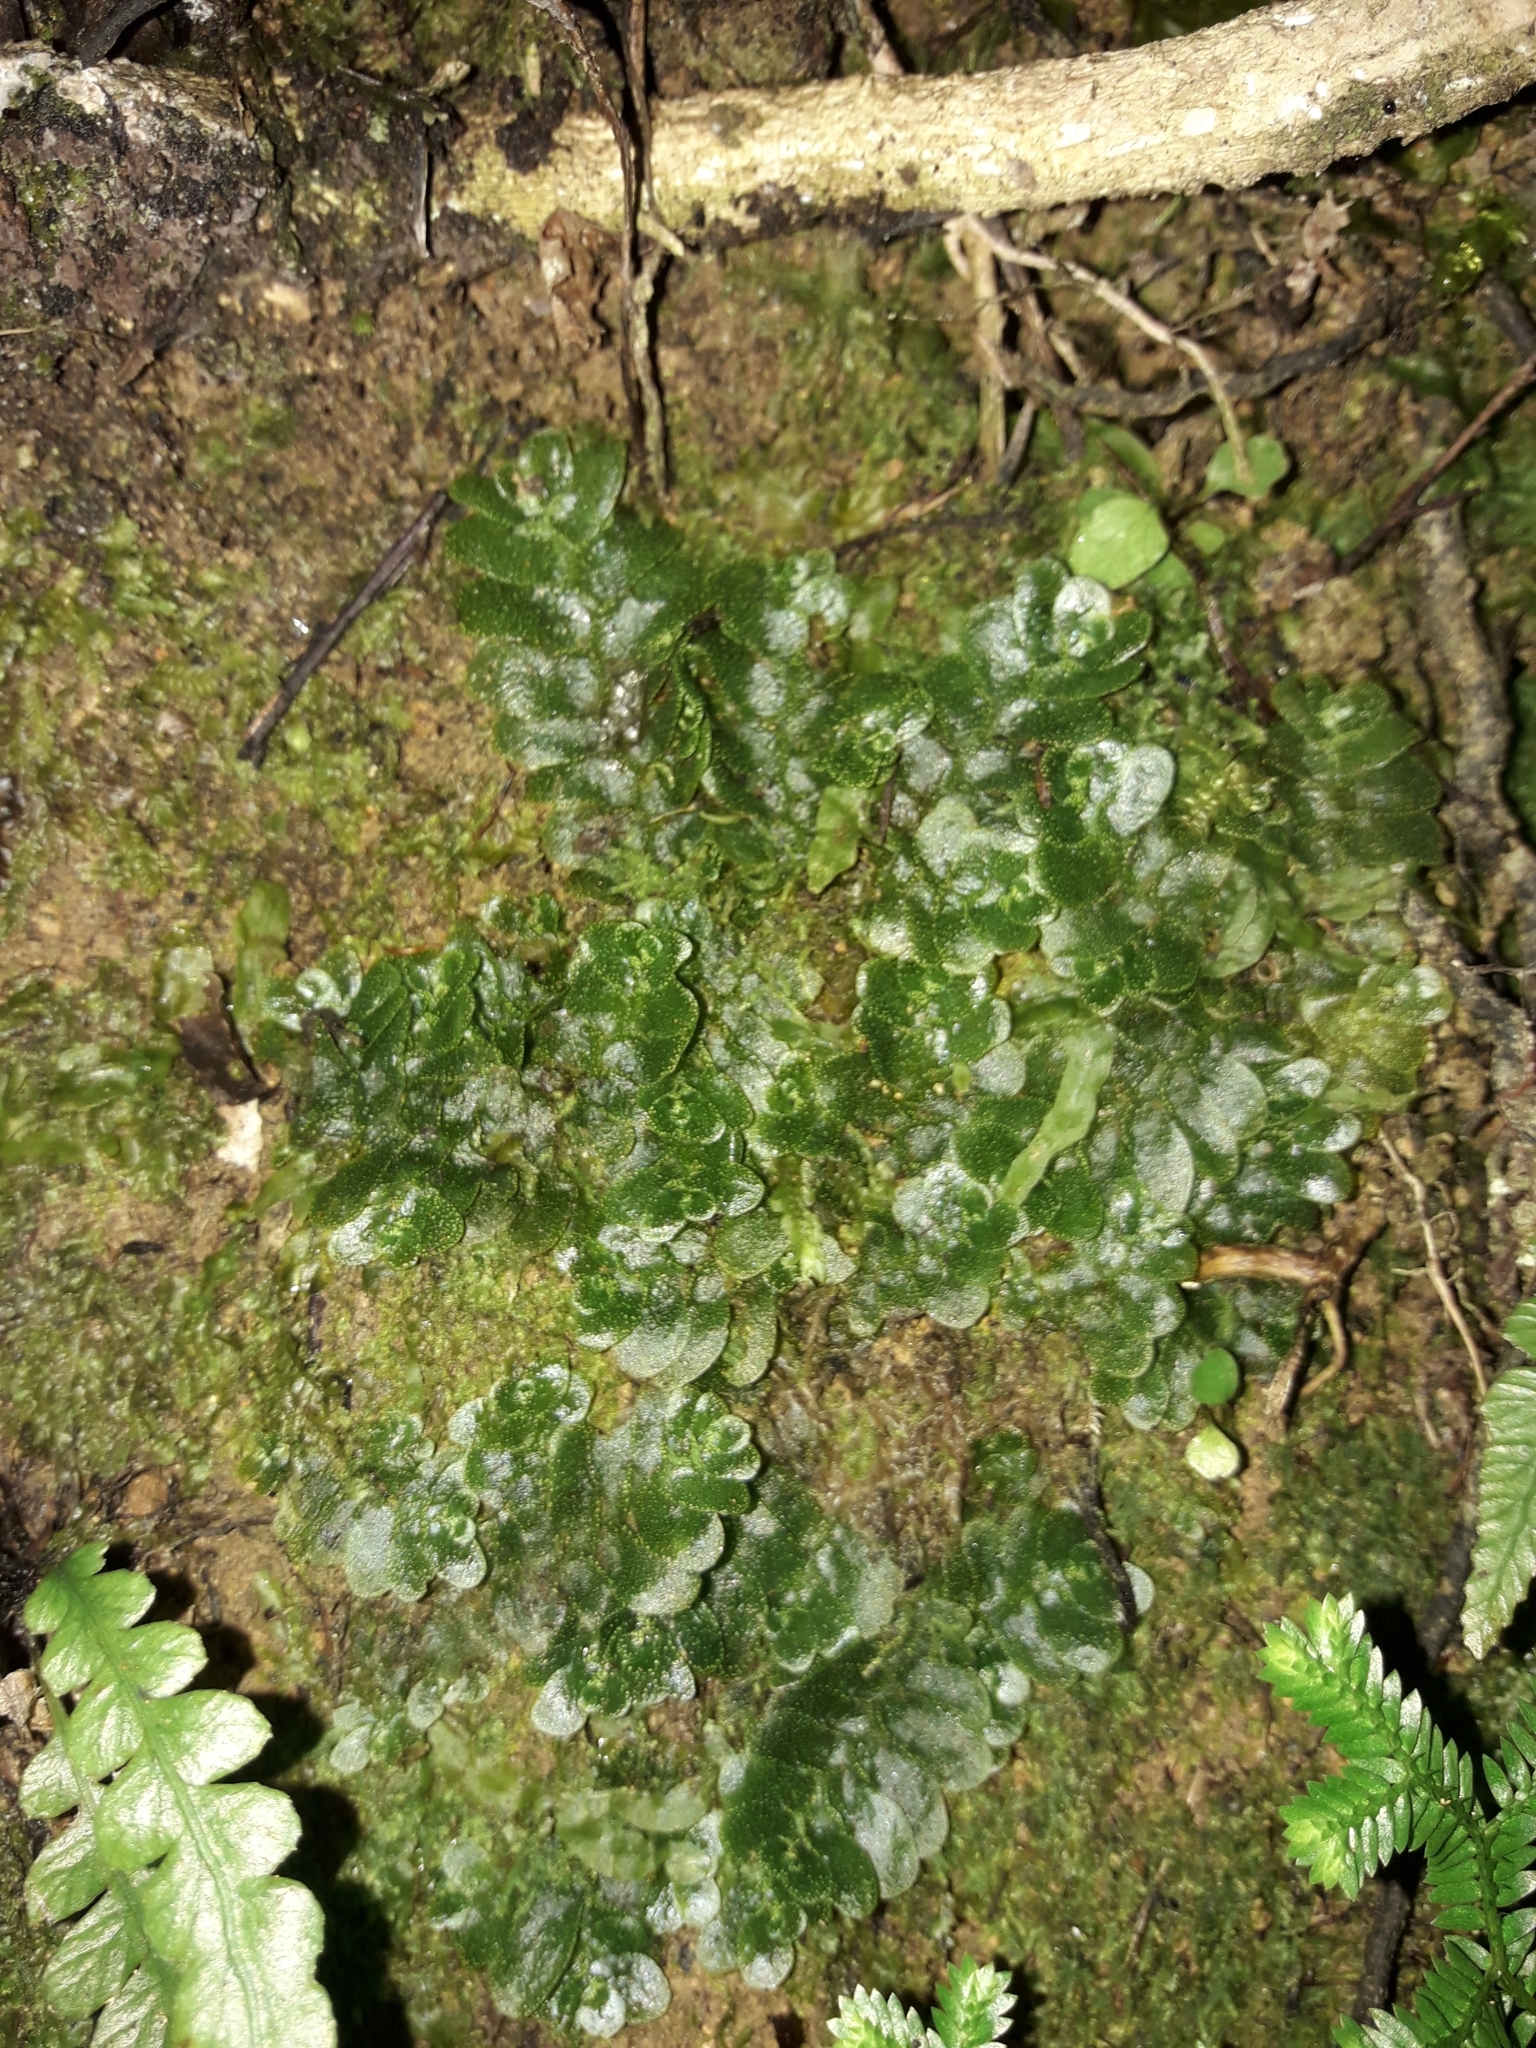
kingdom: Plantae
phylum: Marchantiophyta
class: Haplomitriopsida
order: Treubiales
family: Treubiaceae
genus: Treubia
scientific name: Treubia lacunosa
